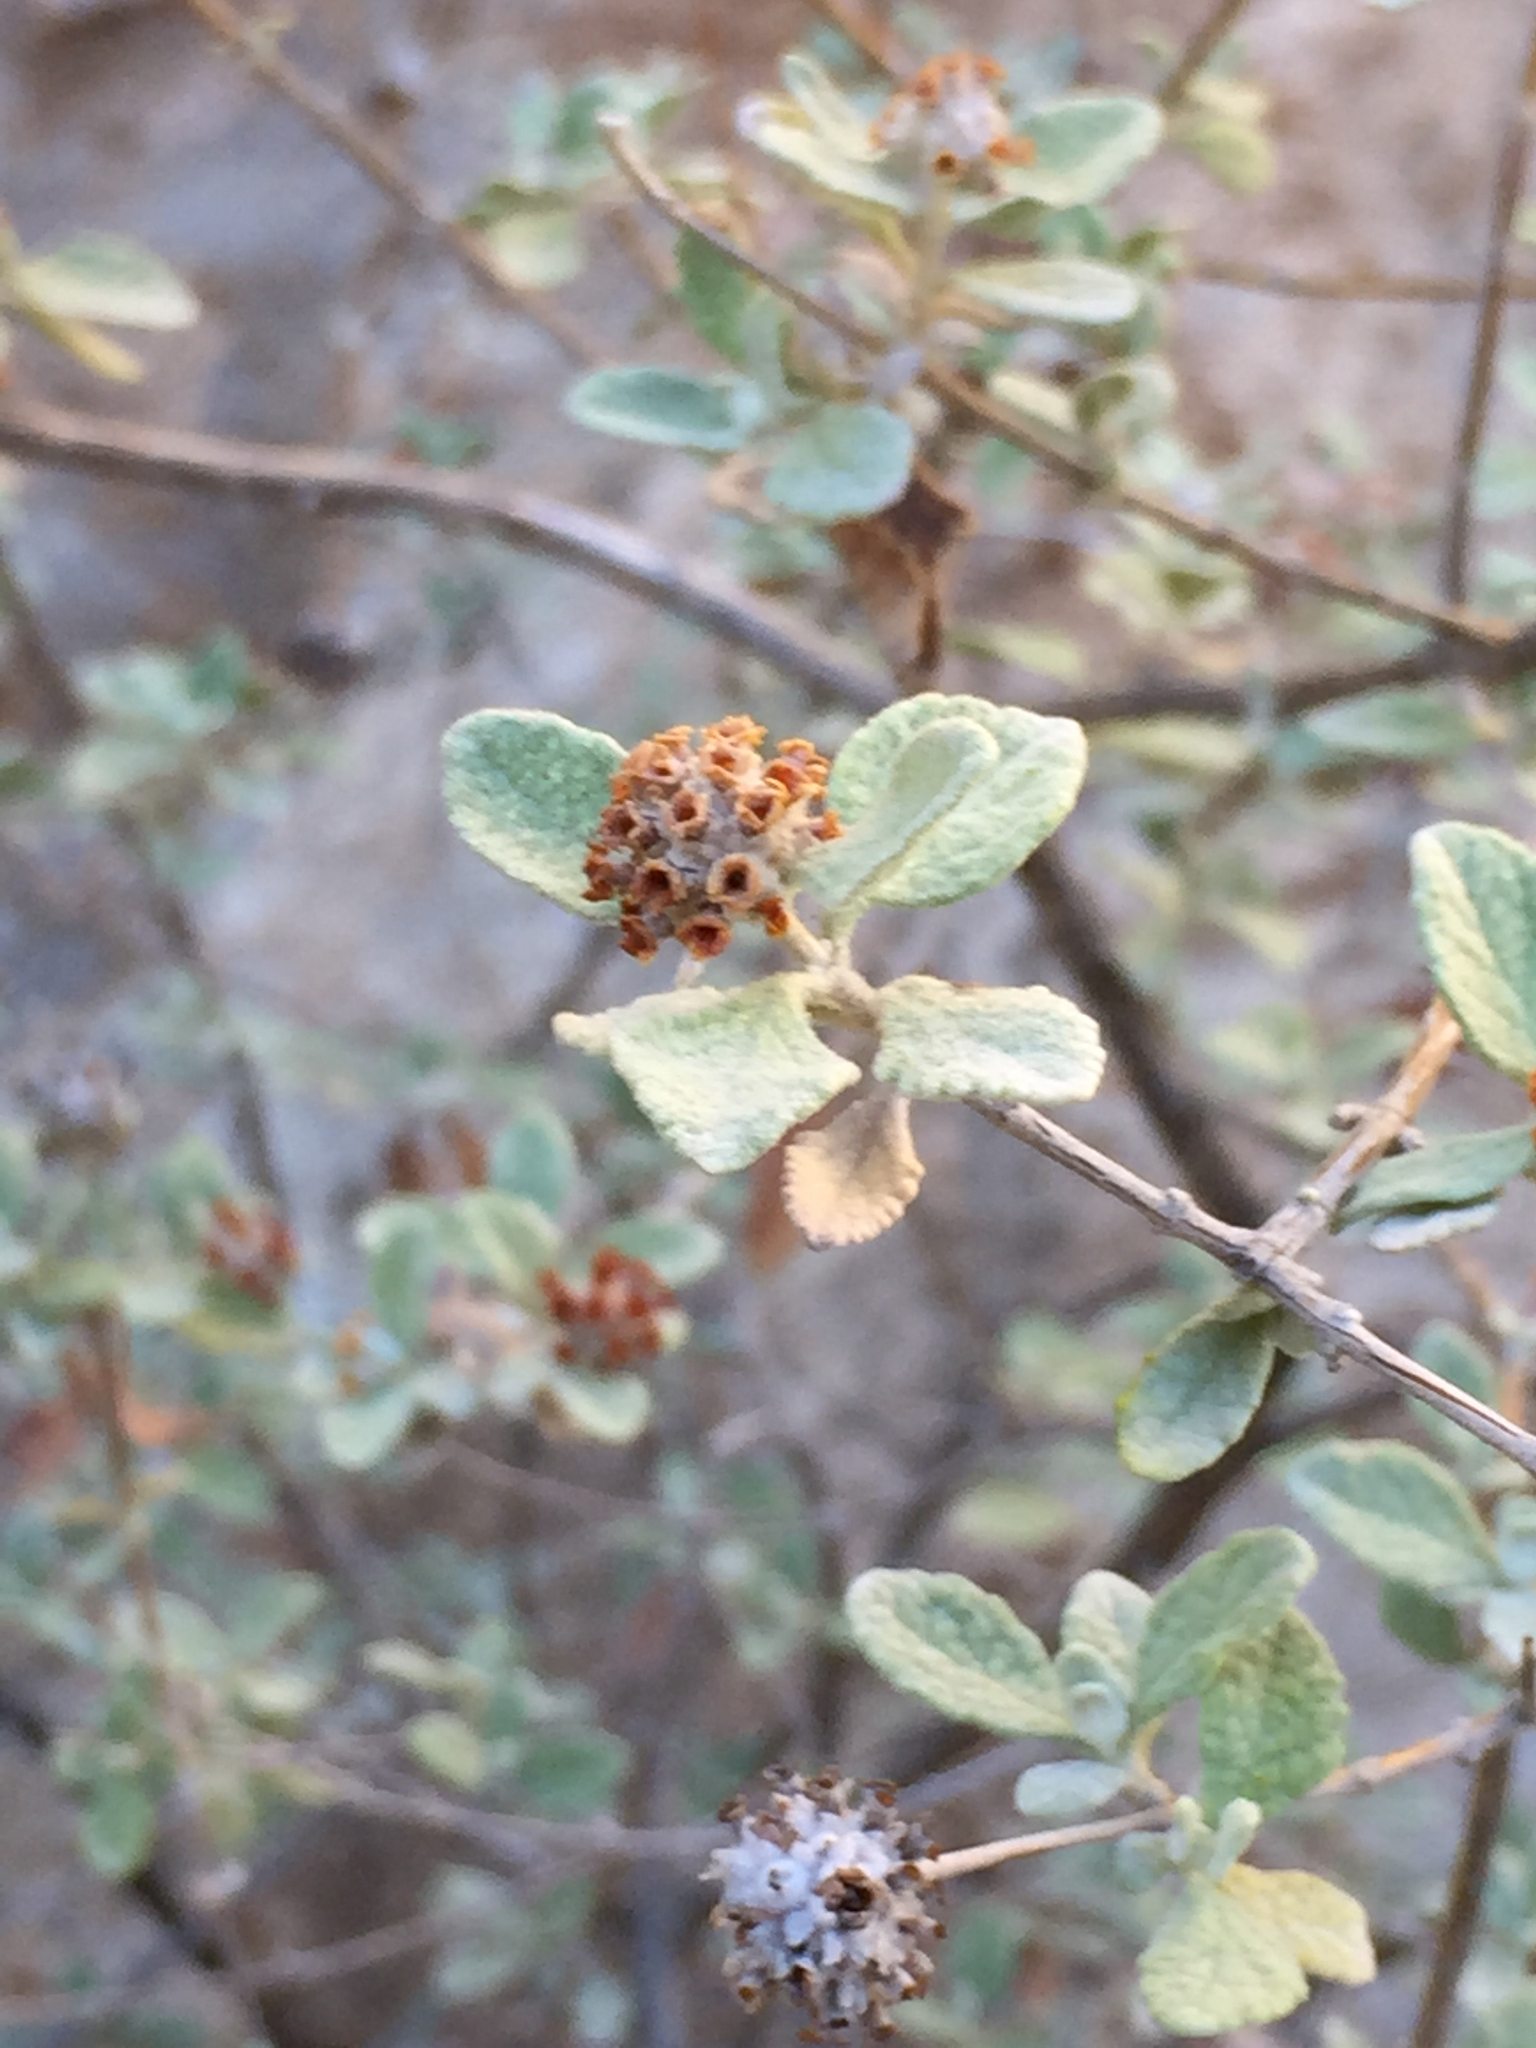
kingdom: Plantae
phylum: Tracheophyta
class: Magnoliopsida
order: Lamiales
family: Scrophulariaceae
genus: Buddleja
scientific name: Buddleja marrubiifolia
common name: Woolly butterfly-bush
